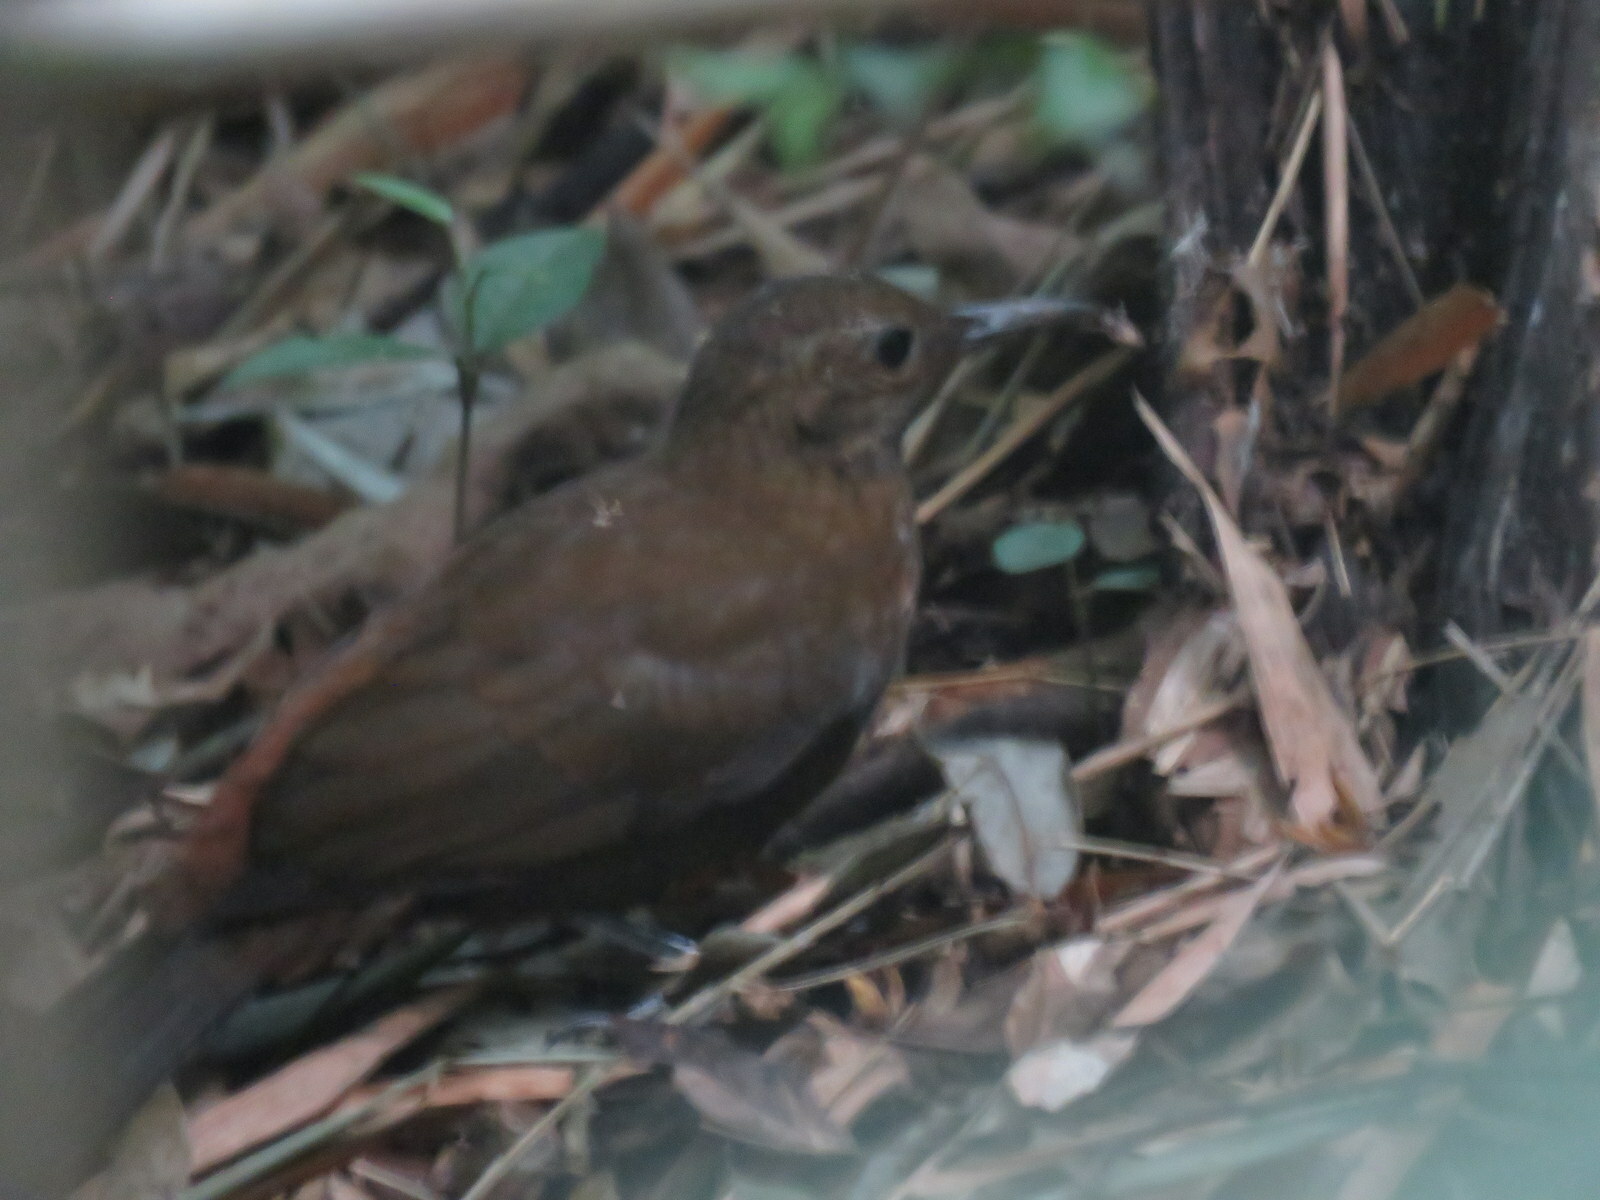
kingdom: Animalia
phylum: Chordata
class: Aves
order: Passeriformes
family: Furnariidae
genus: Sclerurus
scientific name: Sclerurus scansor
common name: Rufous-breasted leaftosser
